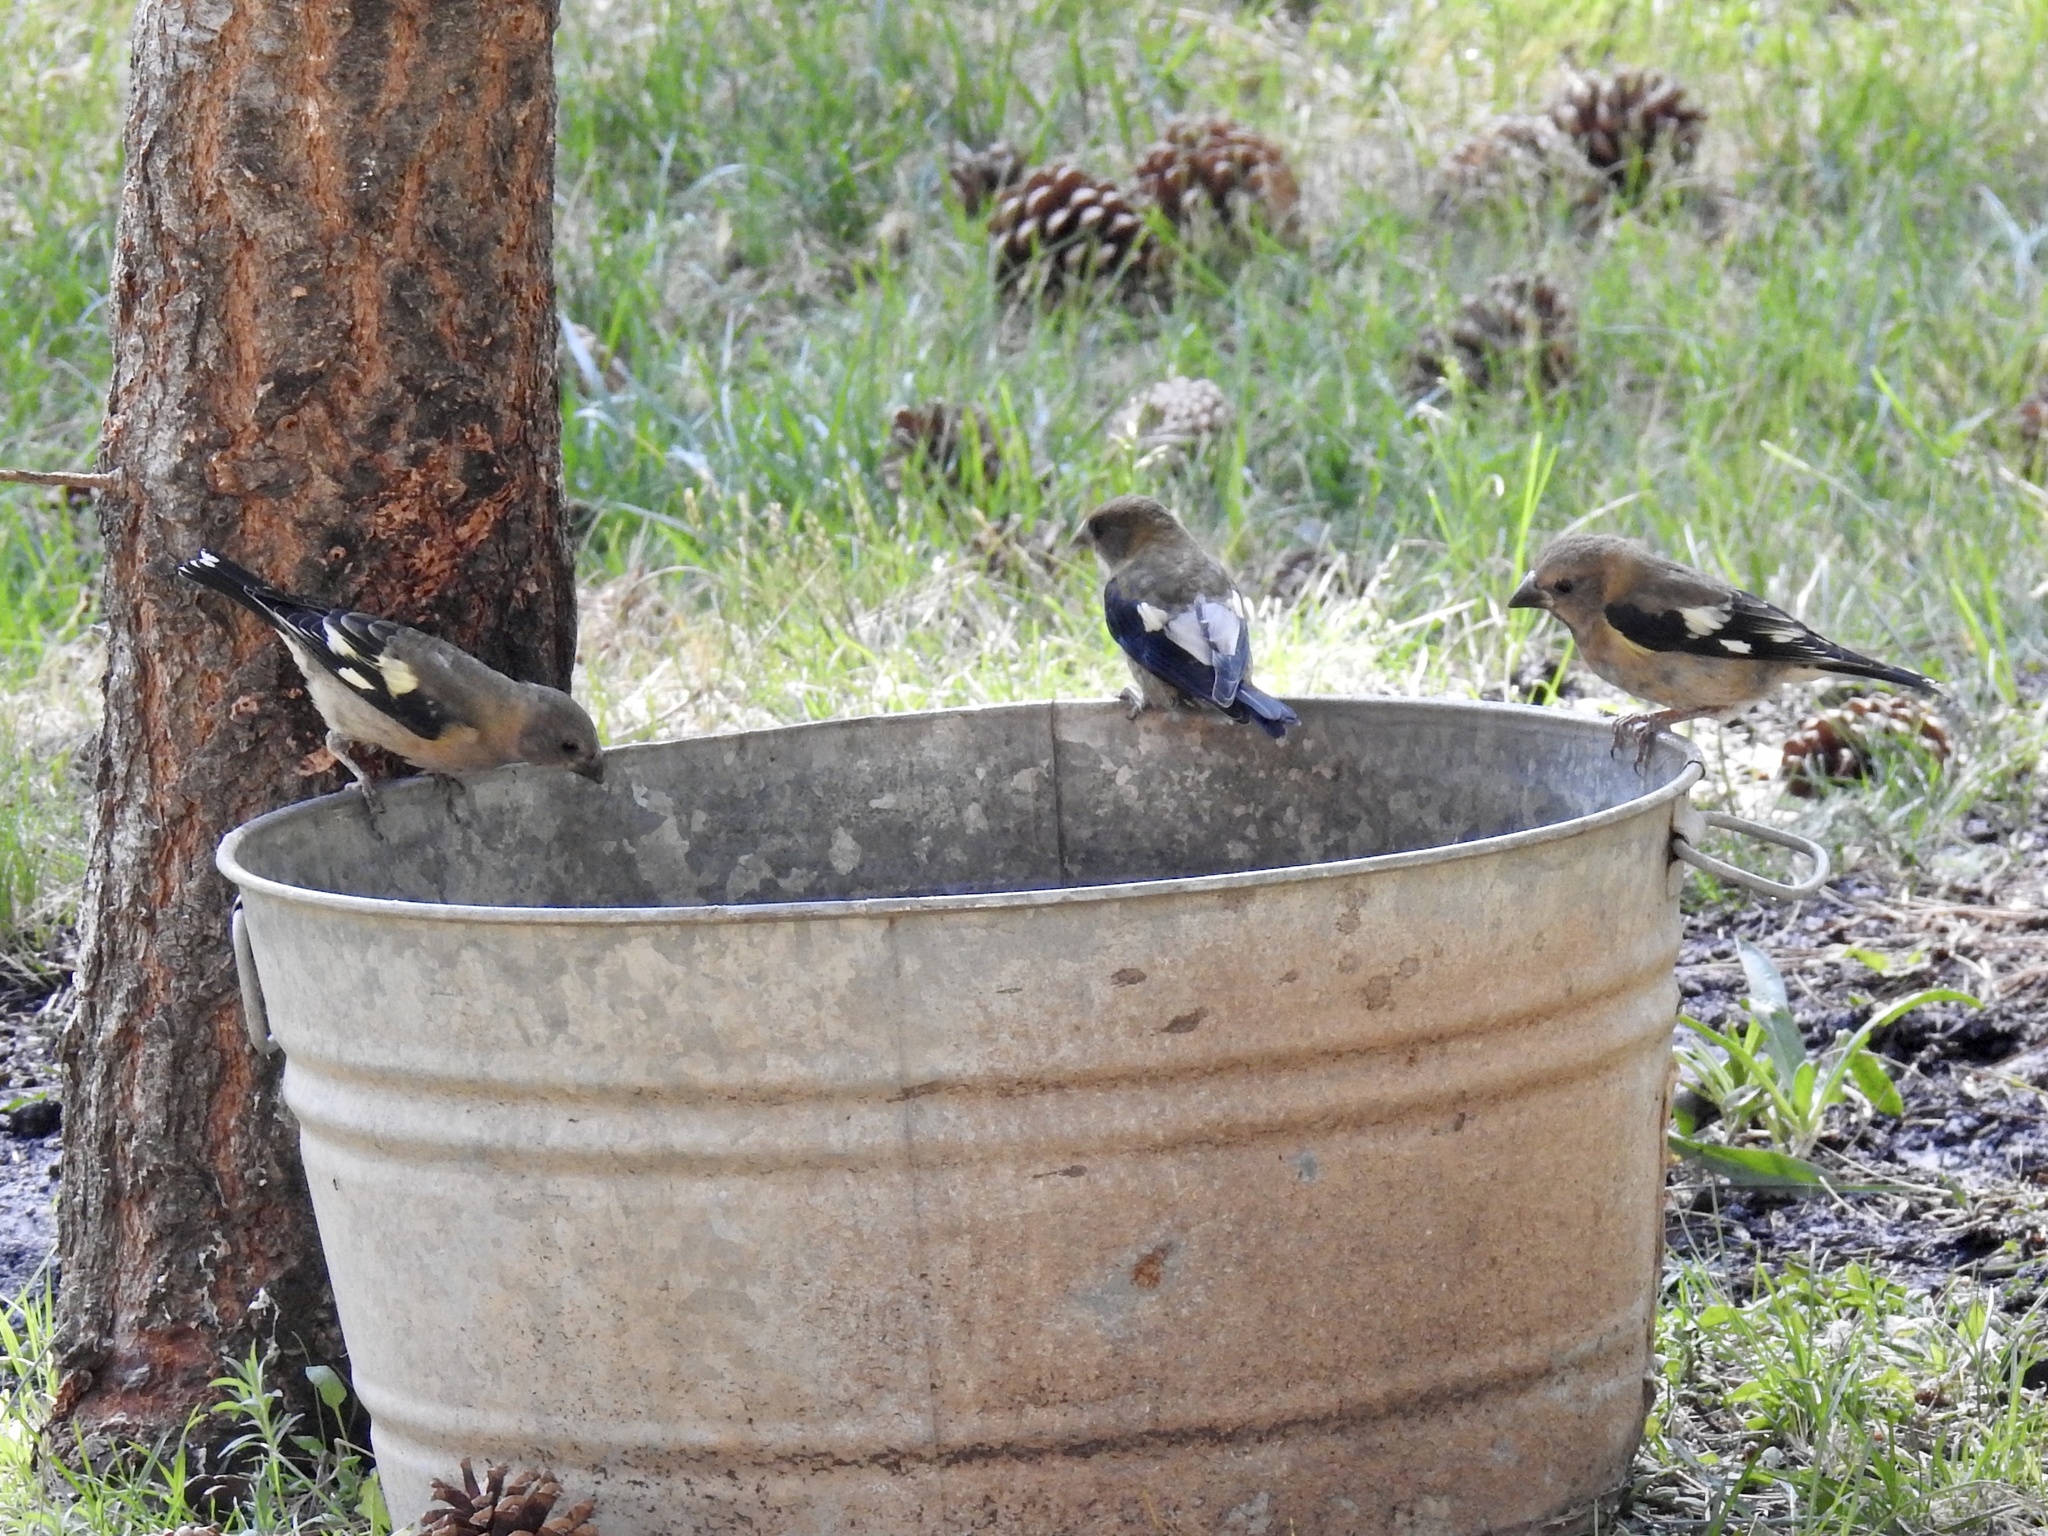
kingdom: Animalia
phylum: Chordata
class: Aves
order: Passeriformes
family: Fringillidae
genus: Hesperiphona
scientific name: Hesperiphona vespertina
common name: Evening grosbeak
